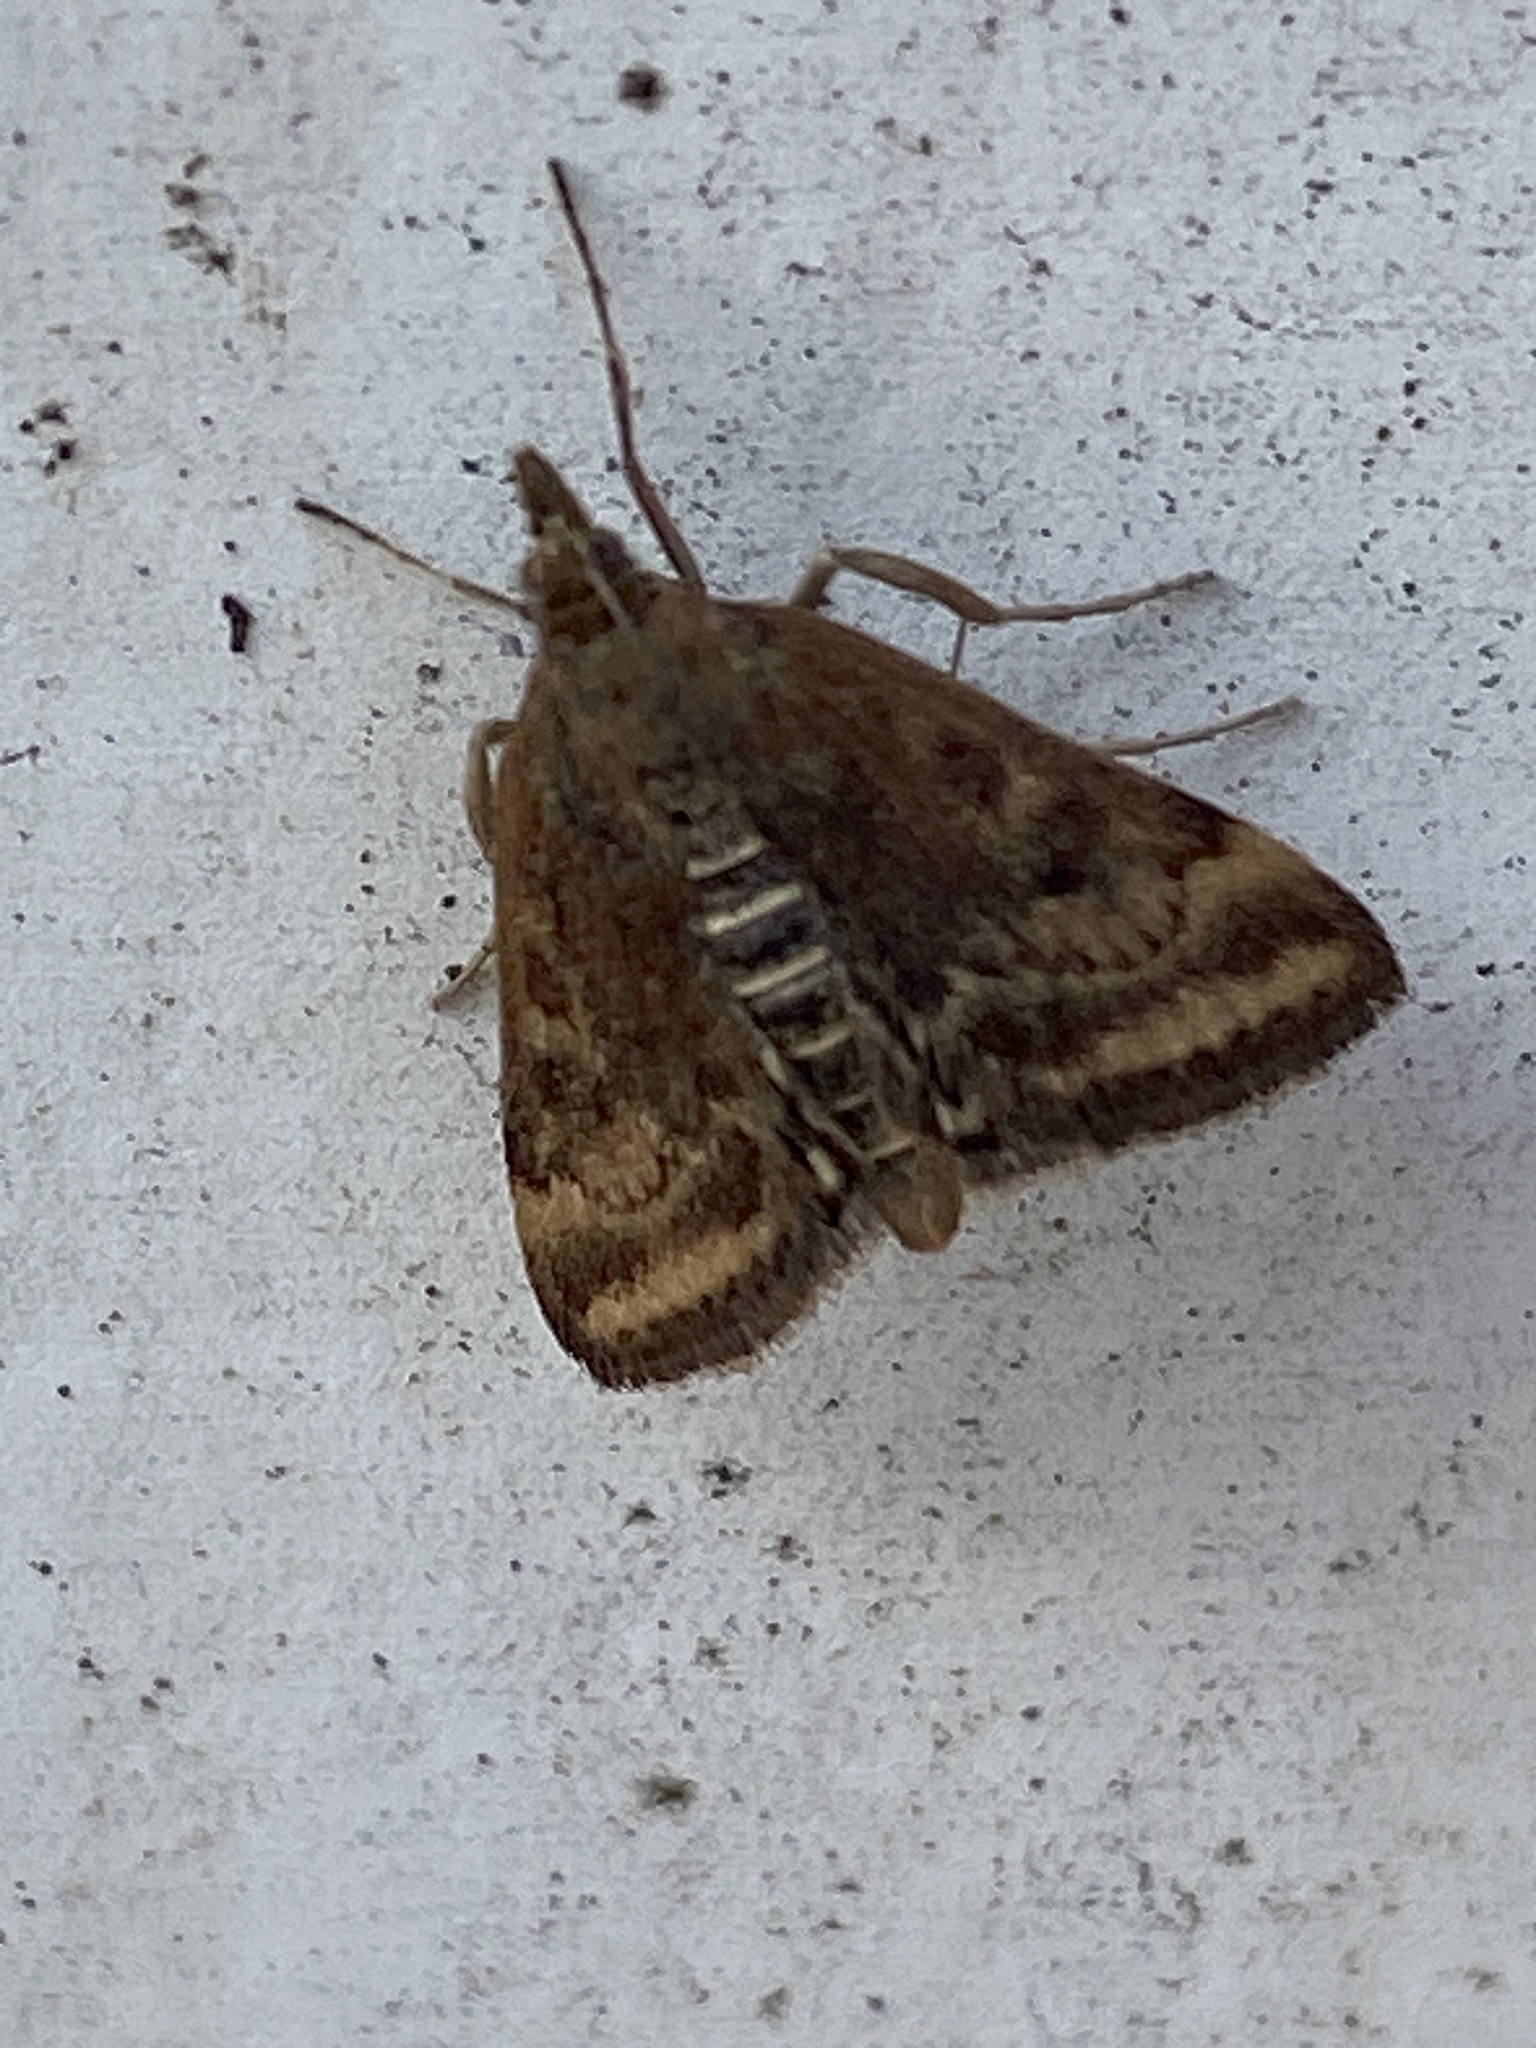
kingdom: Animalia
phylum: Arthropoda
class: Insecta
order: Lepidoptera
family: Crambidae
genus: Pyrausta
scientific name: Pyrausta despicata
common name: Straw-barred pearl
